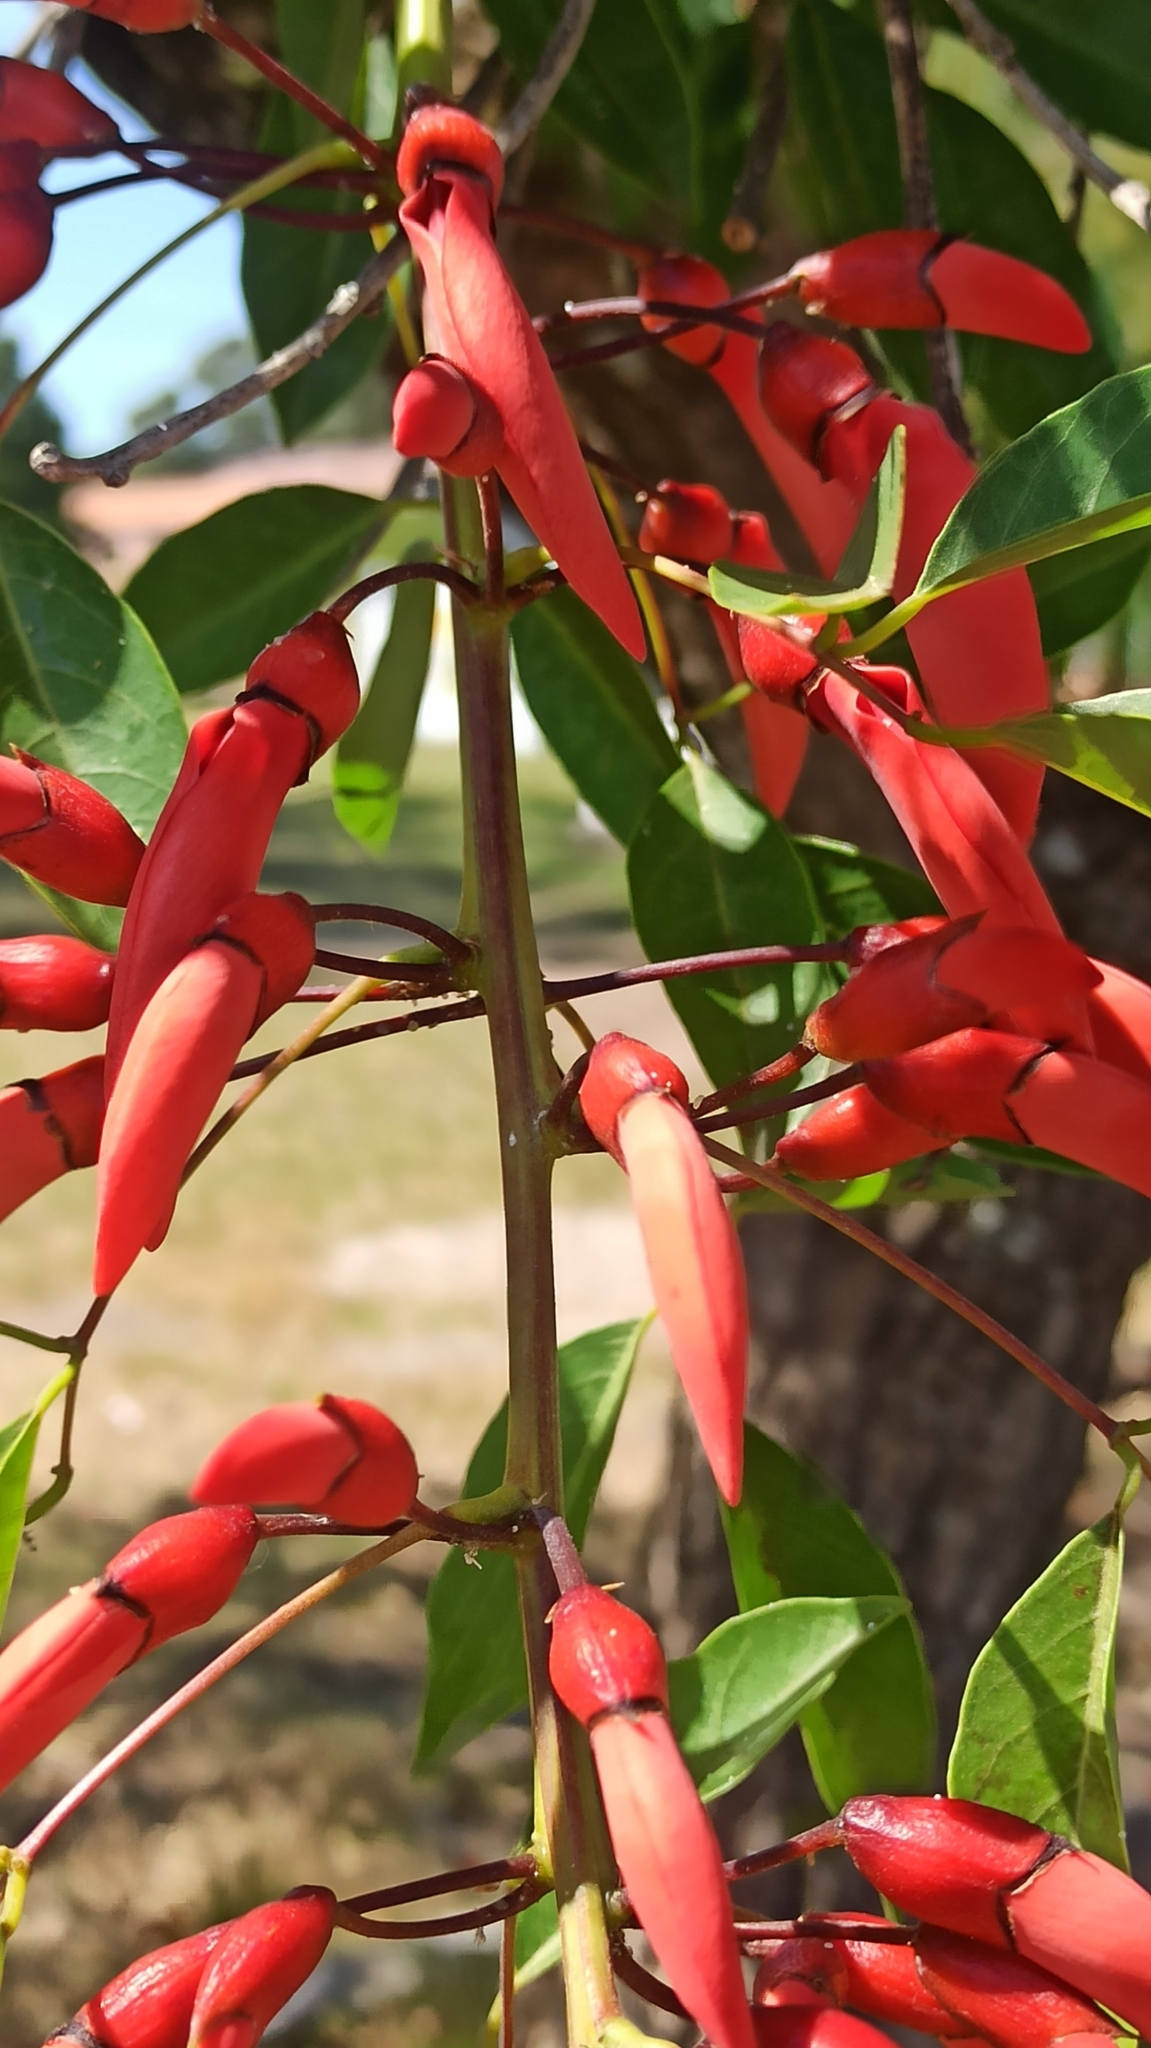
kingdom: Plantae
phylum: Tracheophyta
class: Magnoliopsida
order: Fabales
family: Fabaceae
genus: Erythrina
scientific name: Erythrina crista-galli
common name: Cockspur coral tree
